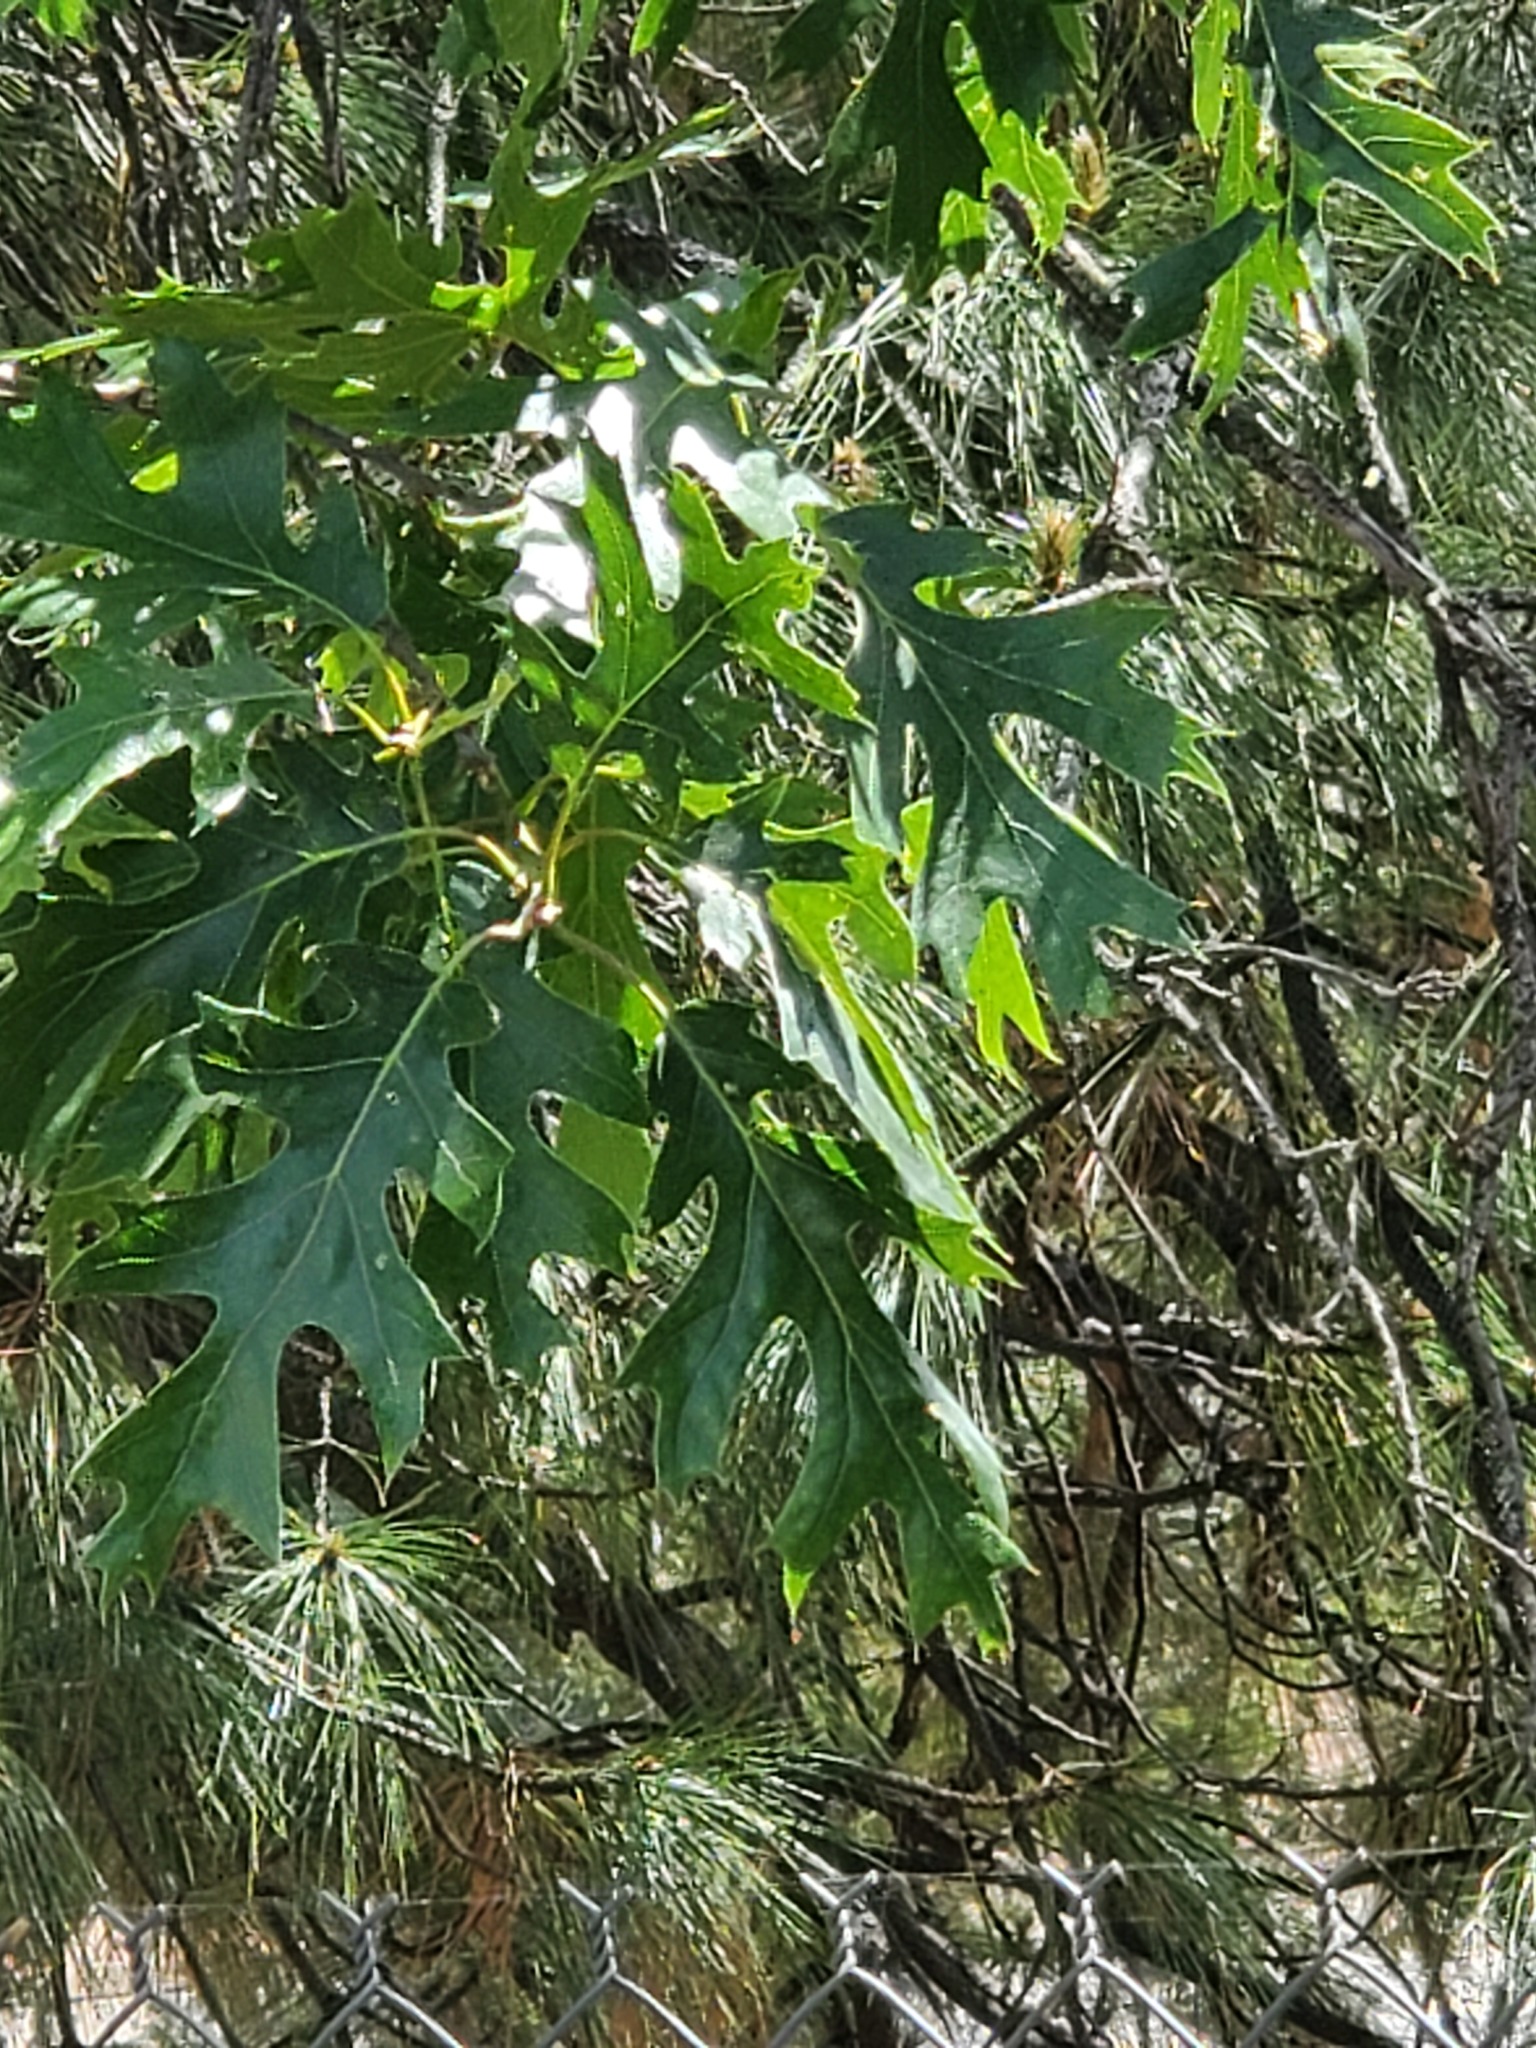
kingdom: Plantae
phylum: Tracheophyta
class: Magnoliopsida
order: Fagales
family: Fagaceae
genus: Quercus
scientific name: Quercus kelloggii
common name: California black oak
